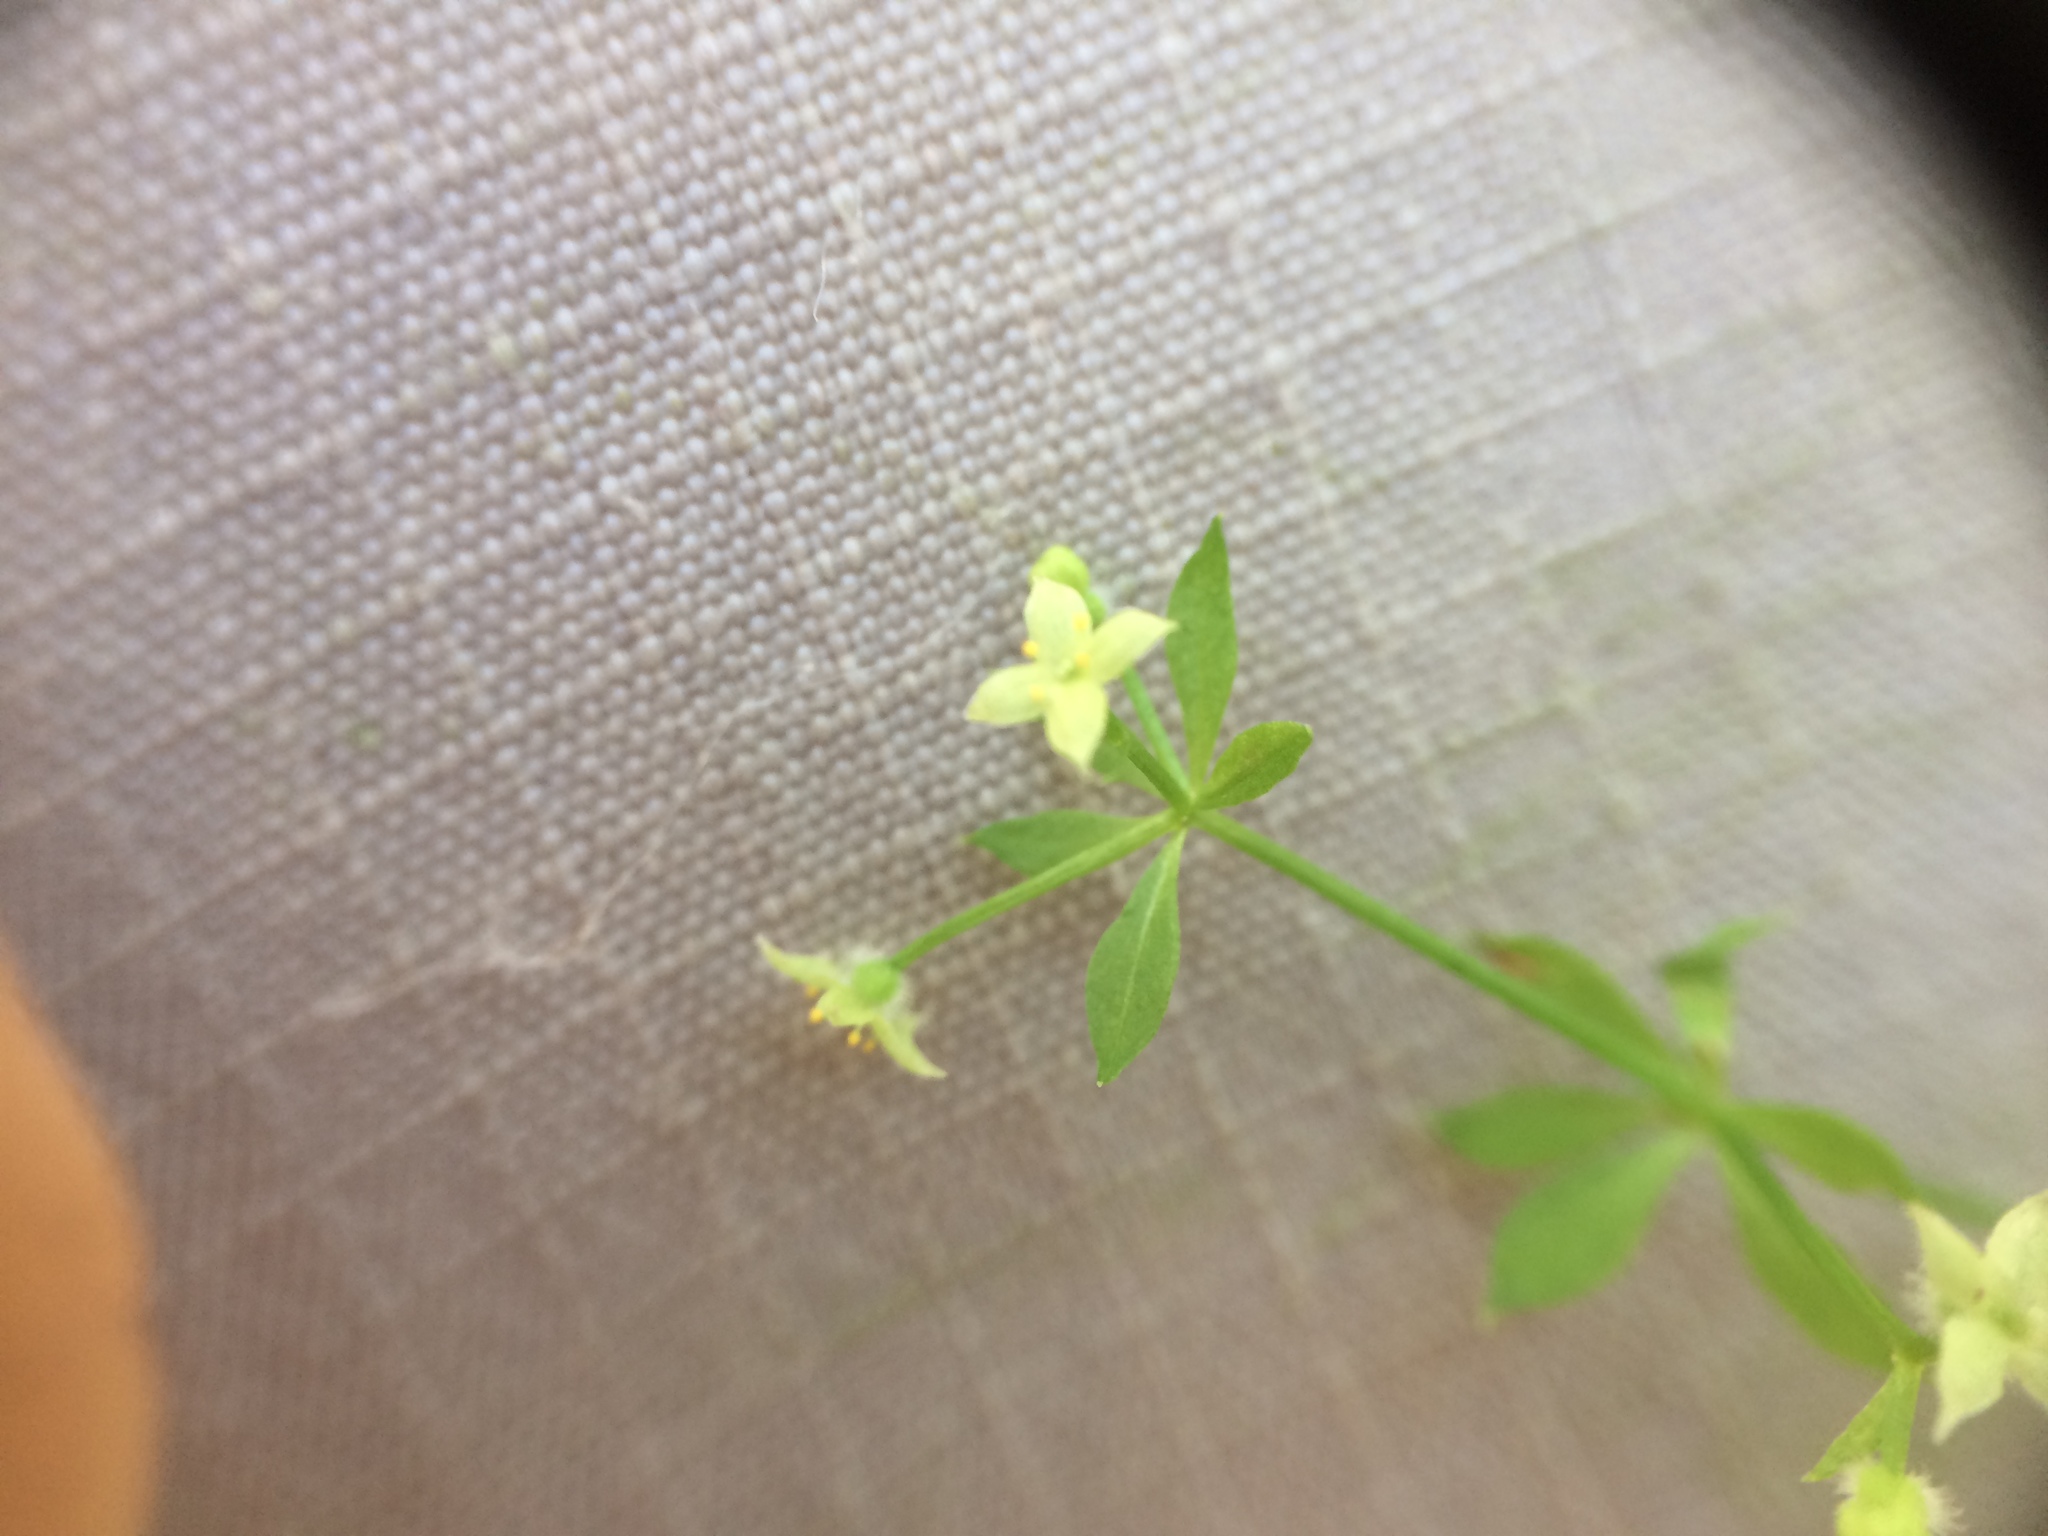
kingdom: Plantae
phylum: Tracheophyta
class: Magnoliopsida
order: Gentianales
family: Rubiaceae
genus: Galium
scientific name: Galium triflorum
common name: Fragrant bedstraw
